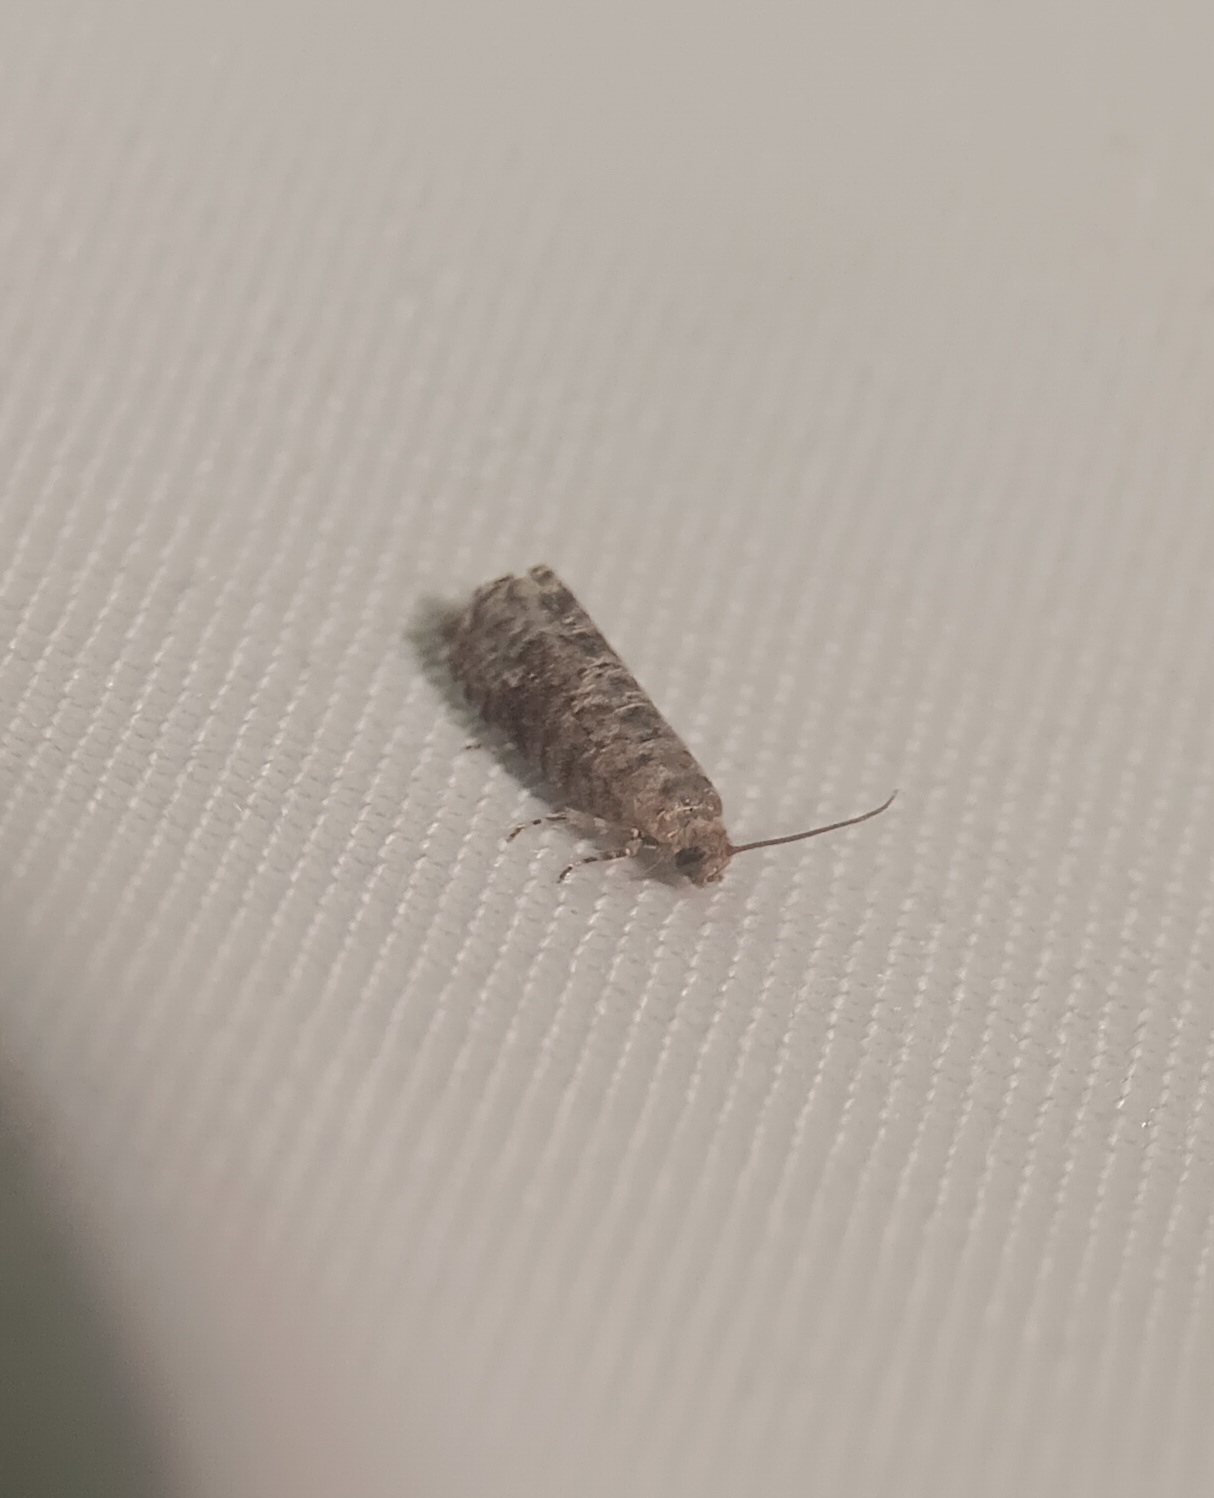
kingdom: Animalia
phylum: Arthropoda
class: Insecta
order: Lepidoptera
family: Noctuidae
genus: Aspila
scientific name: Aspila
